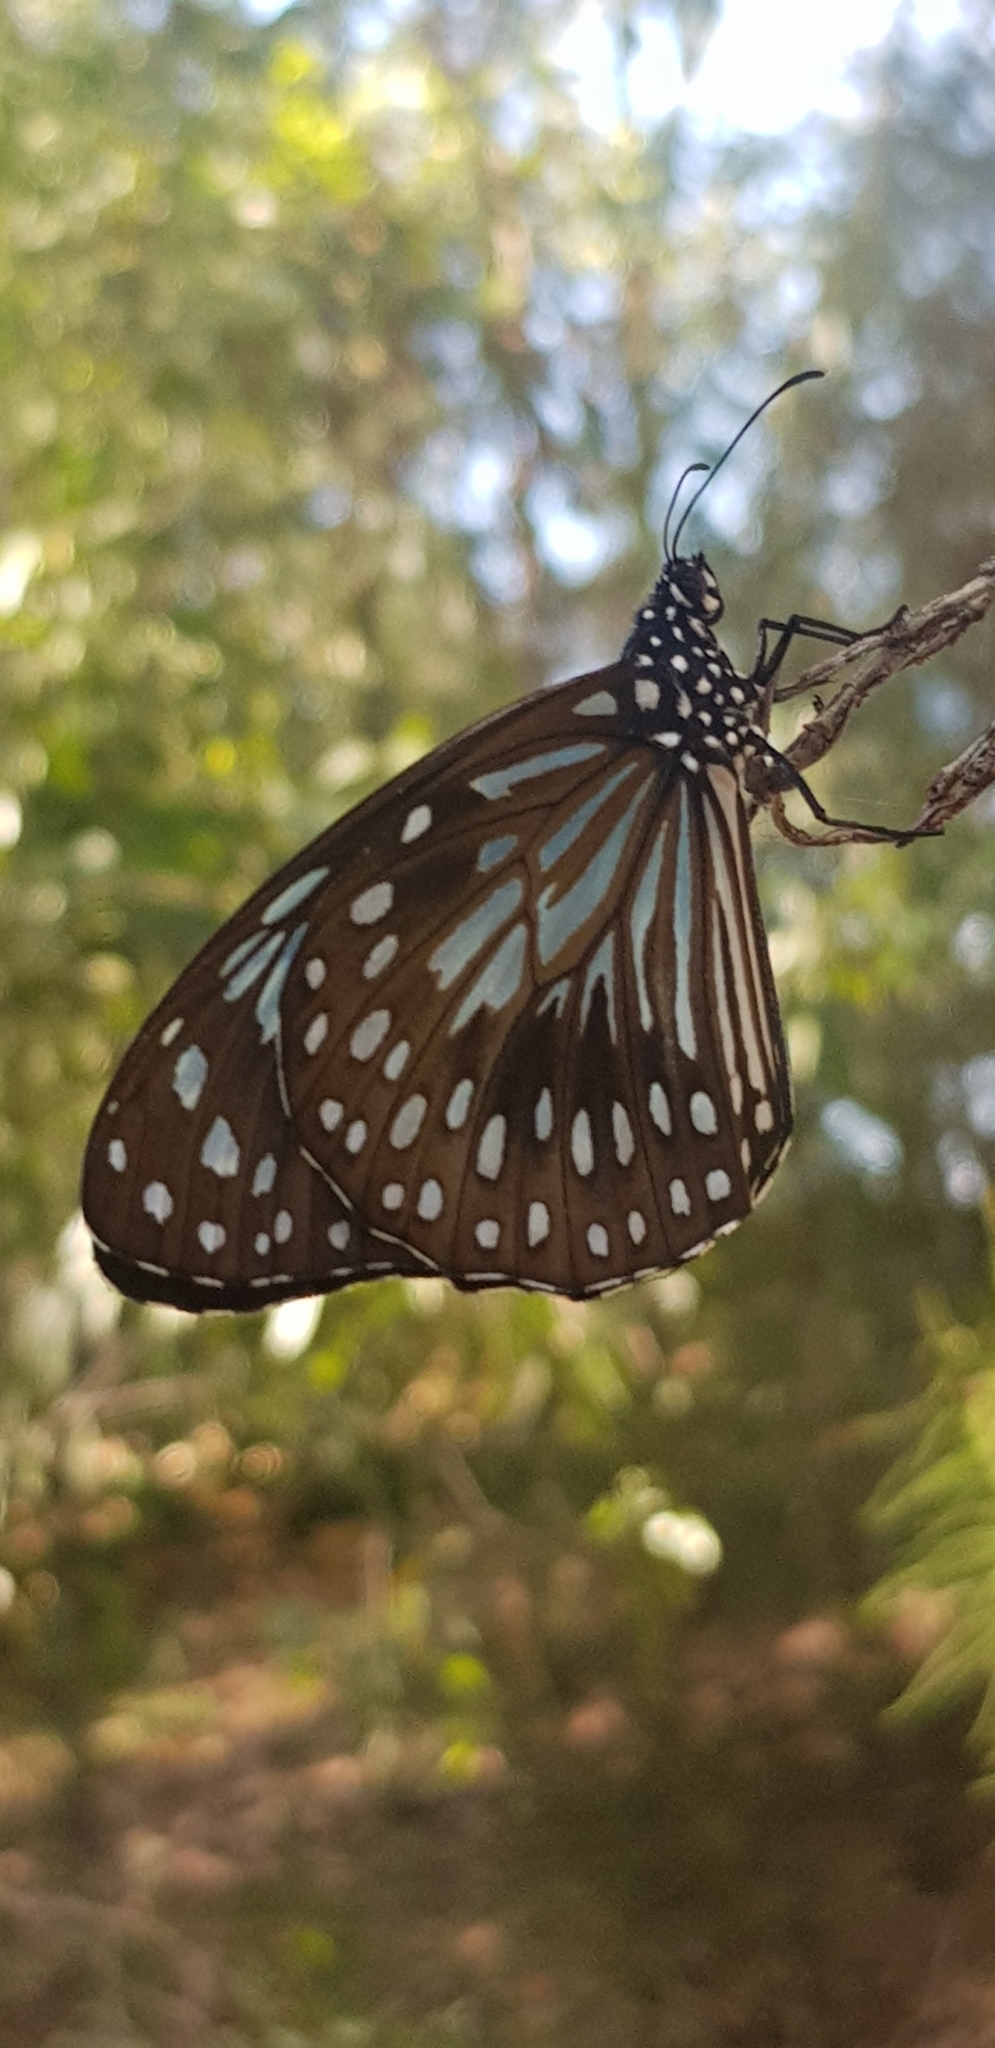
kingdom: Animalia
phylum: Arthropoda
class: Insecta
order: Lepidoptera
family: Nymphalidae
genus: Tirumala
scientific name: Tirumala hamata
